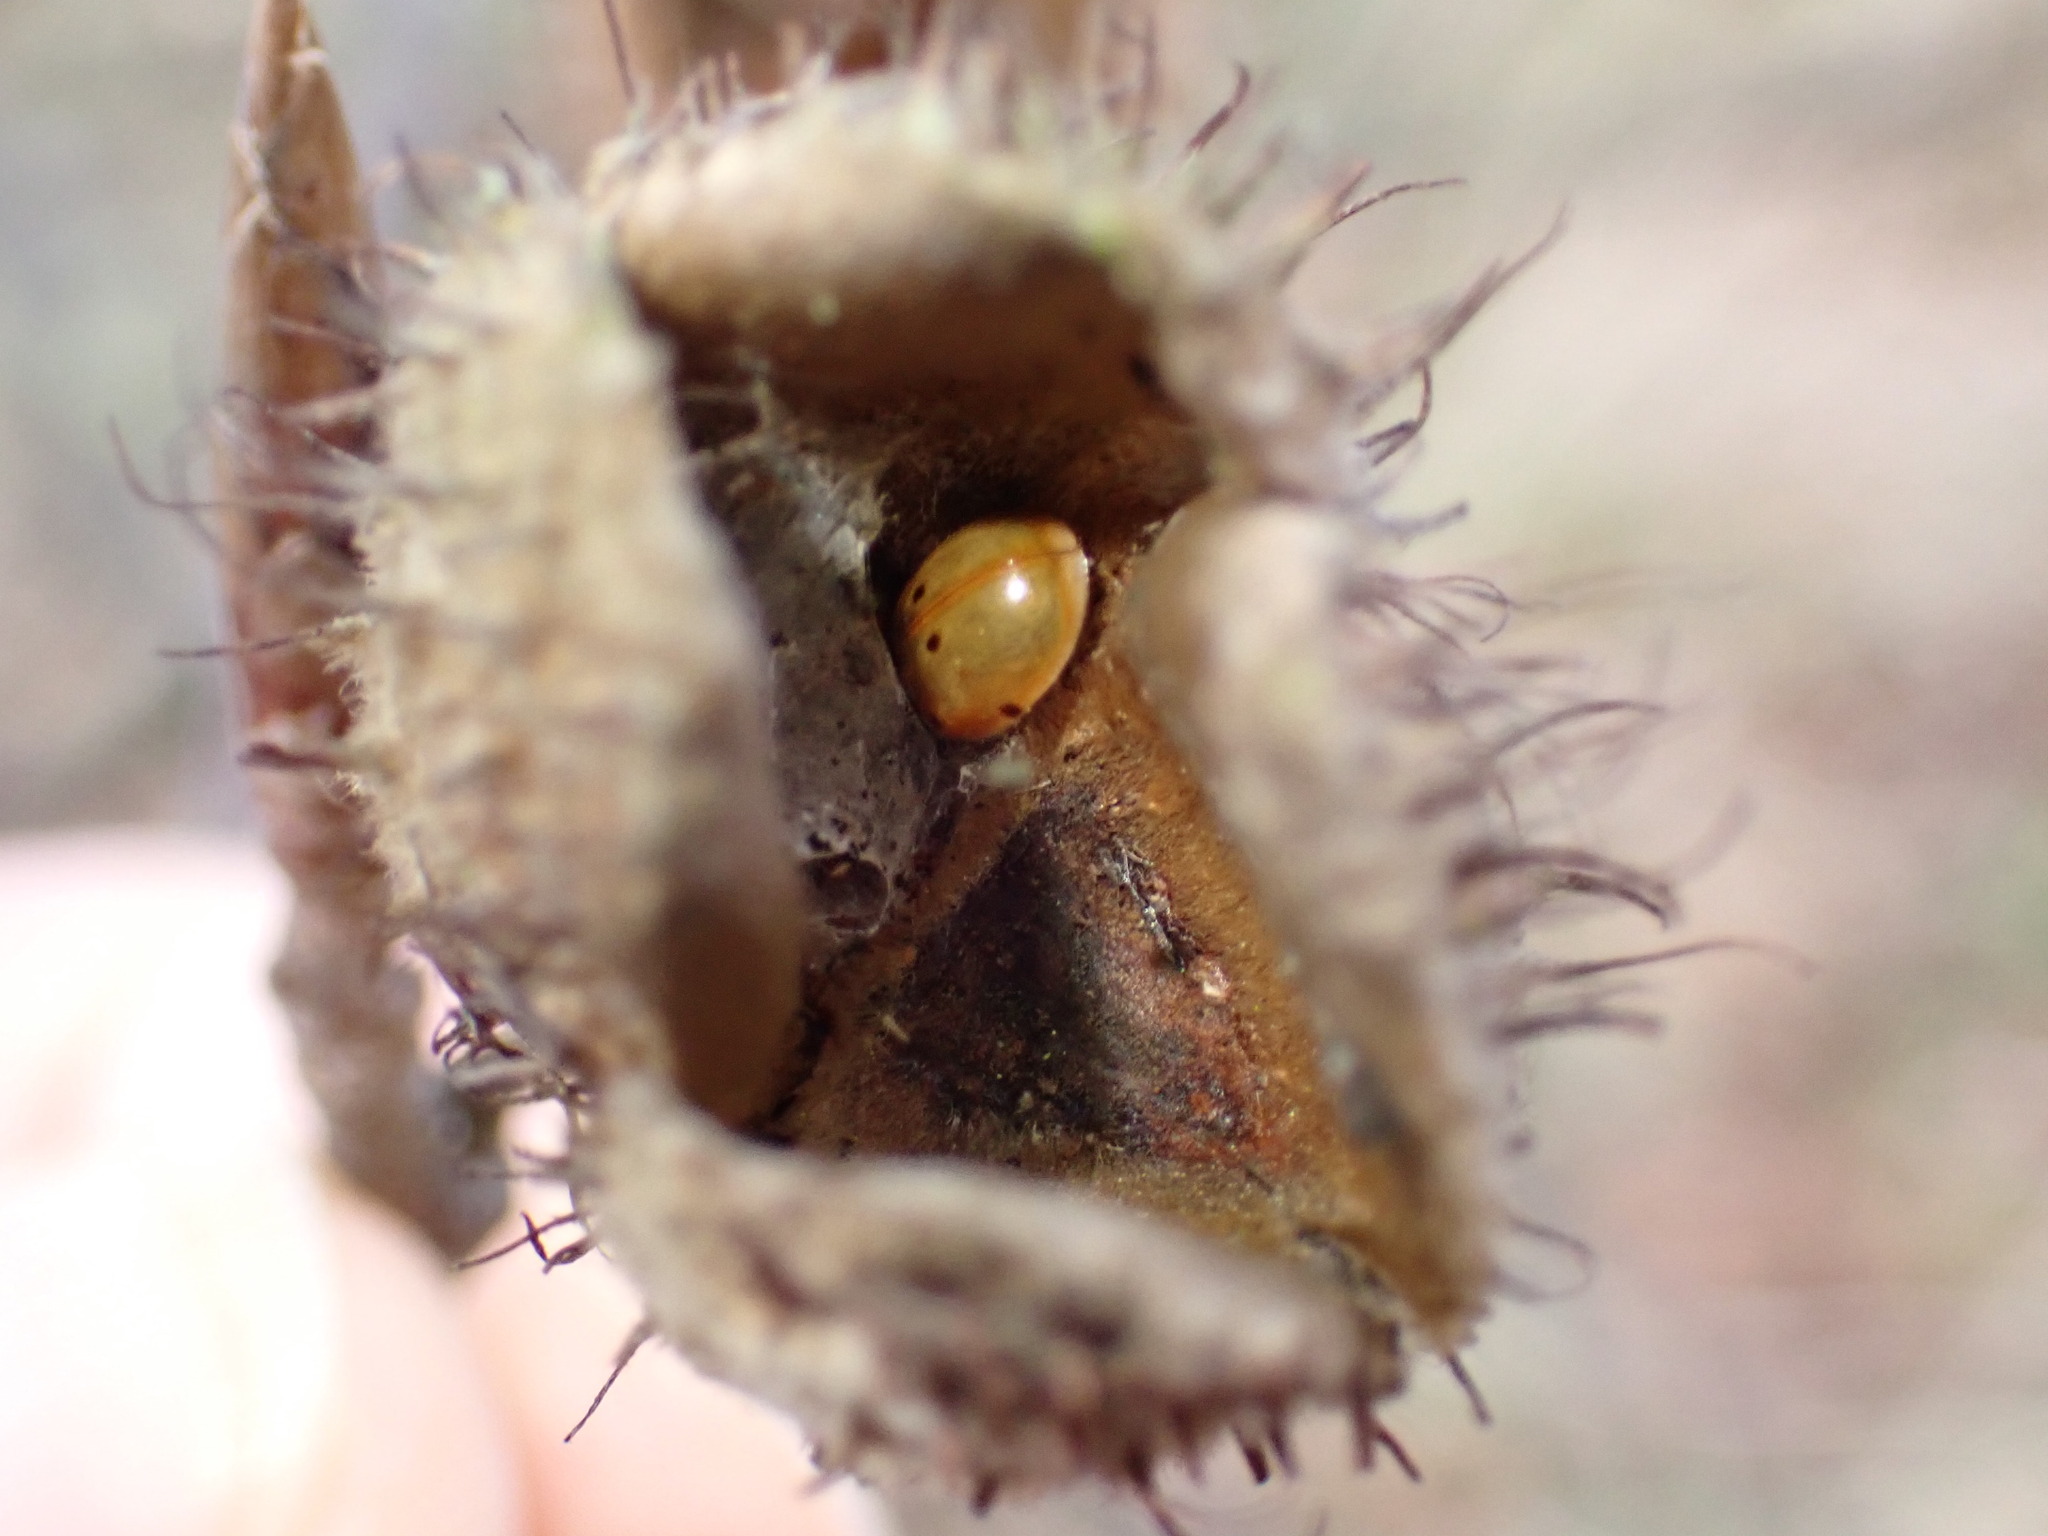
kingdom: Animalia
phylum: Arthropoda
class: Insecta
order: Coleoptera
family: Coccinellidae
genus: Adalia
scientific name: Adalia decempunctata
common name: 10-spot ladybird
